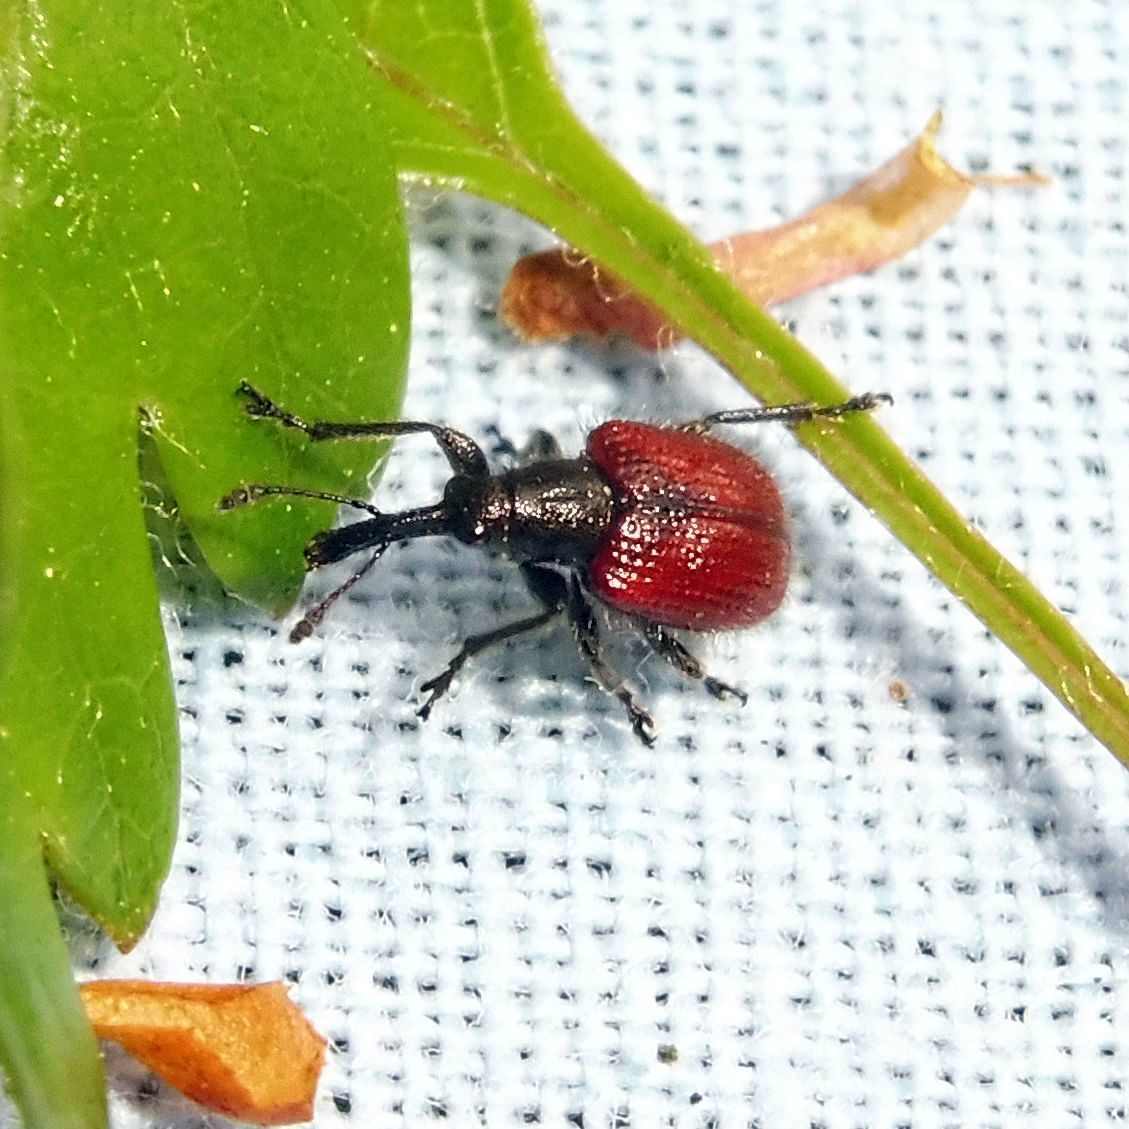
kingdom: Animalia
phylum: Arthropoda
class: Insecta
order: Coleoptera
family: Rhynchitidae
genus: Tatianaerhynchites
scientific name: Tatianaerhynchites aequatus
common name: Apple fruit rhynchites
